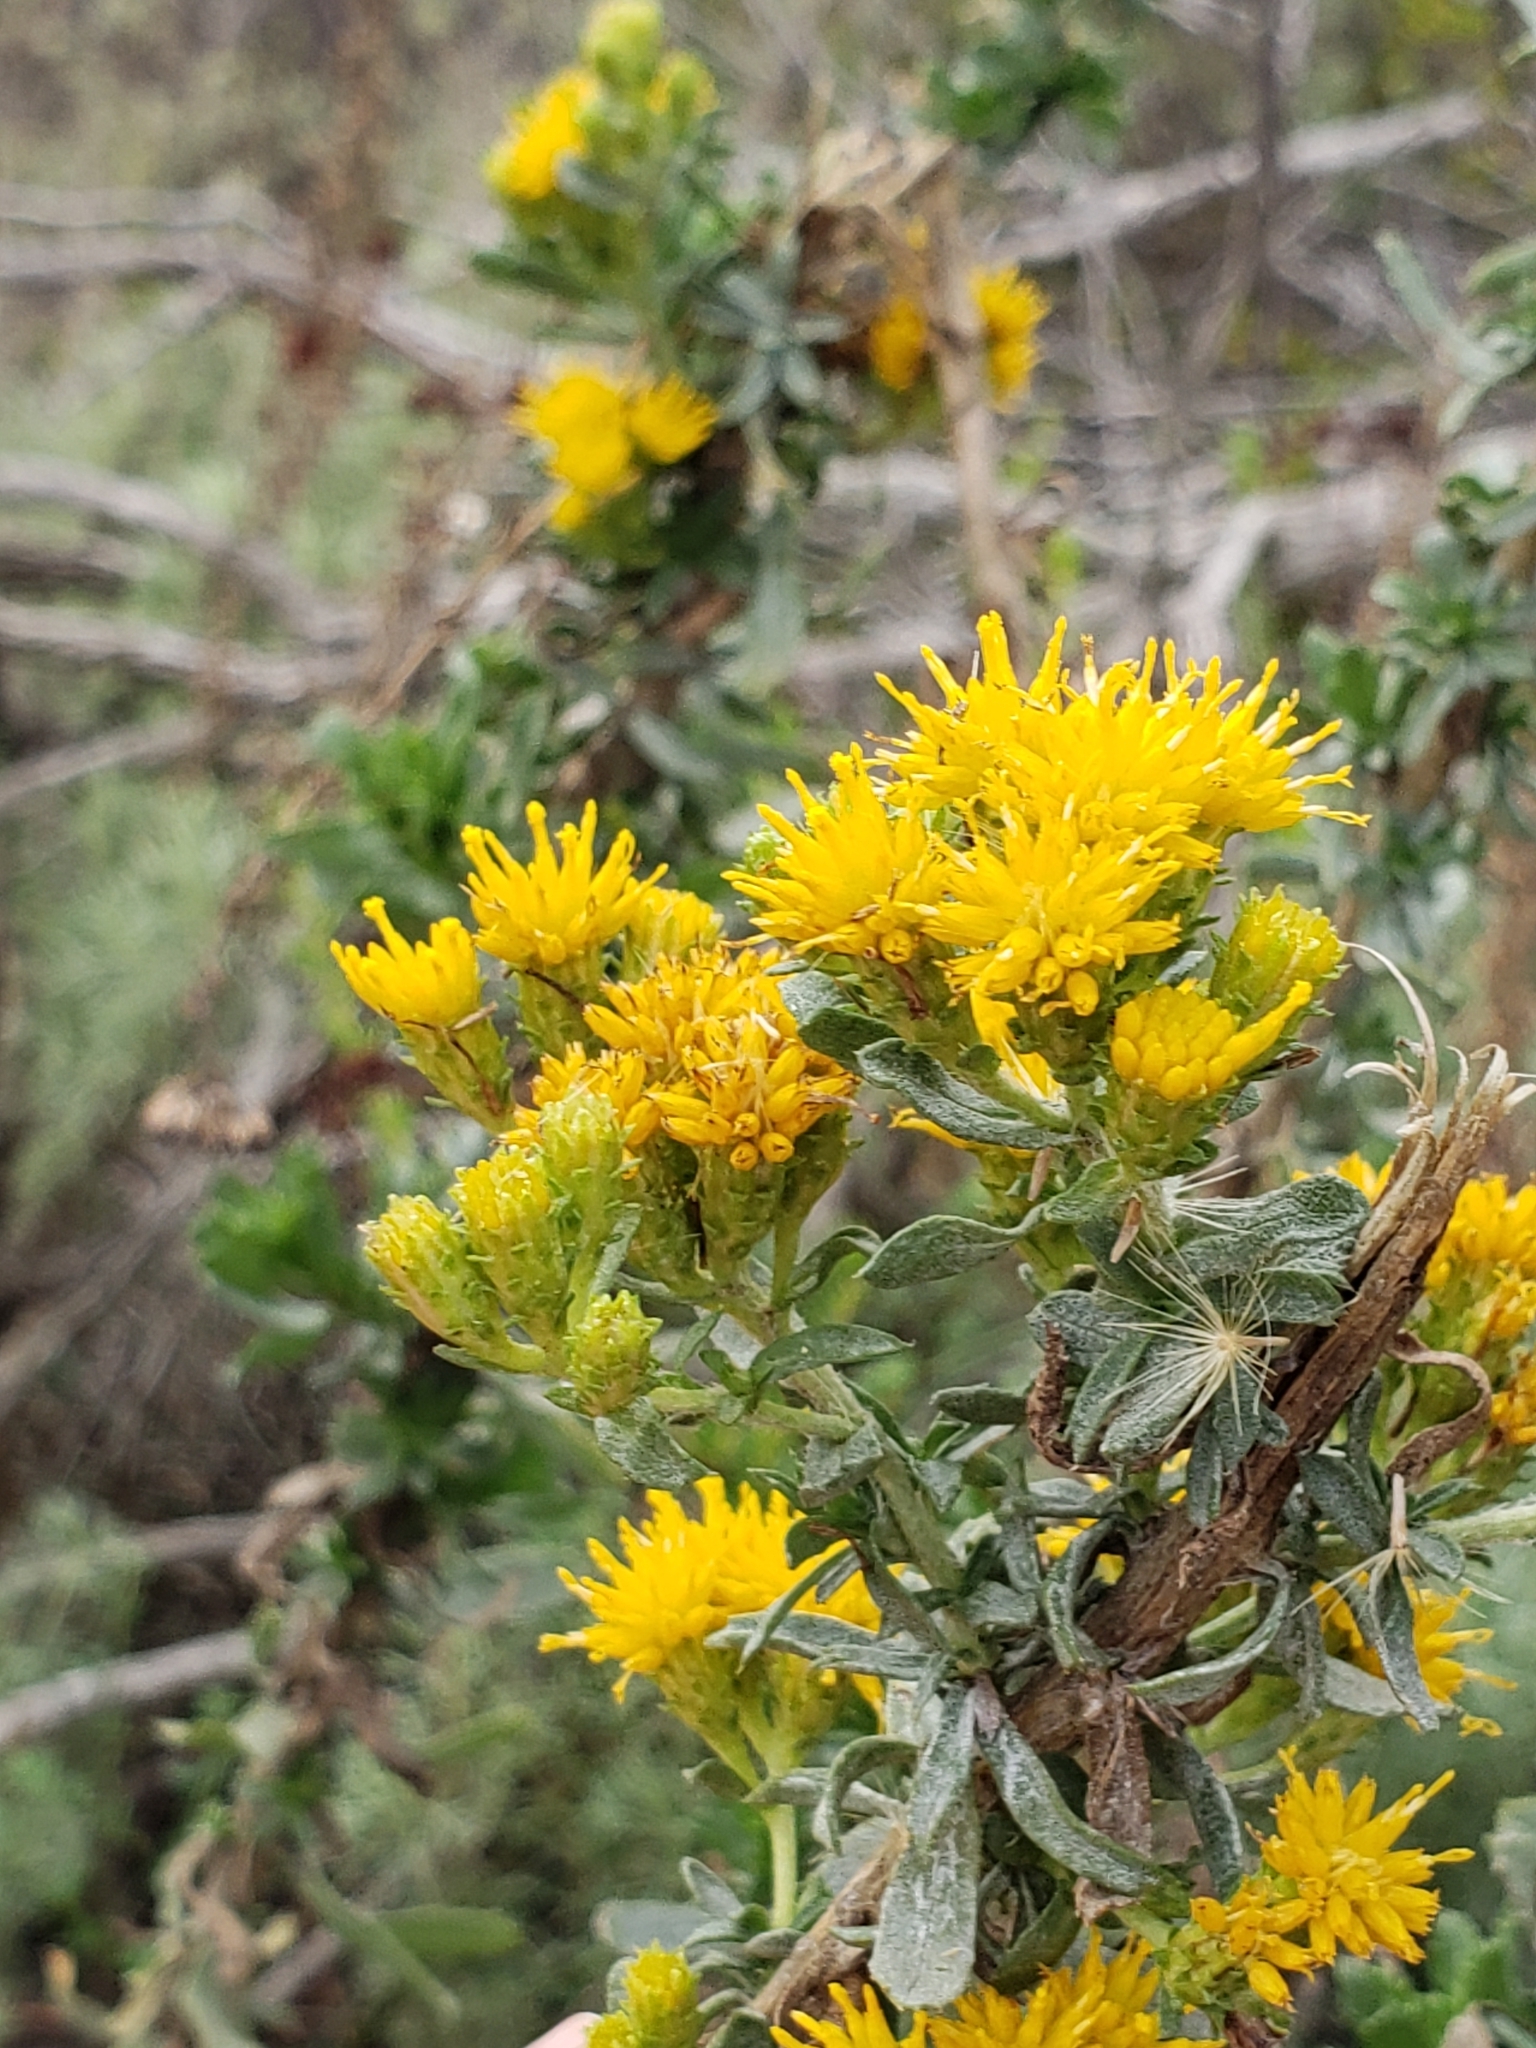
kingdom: Plantae
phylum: Tracheophyta
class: Magnoliopsida
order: Asterales
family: Asteraceae
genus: Isocoma
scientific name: Isocoma menziesii
